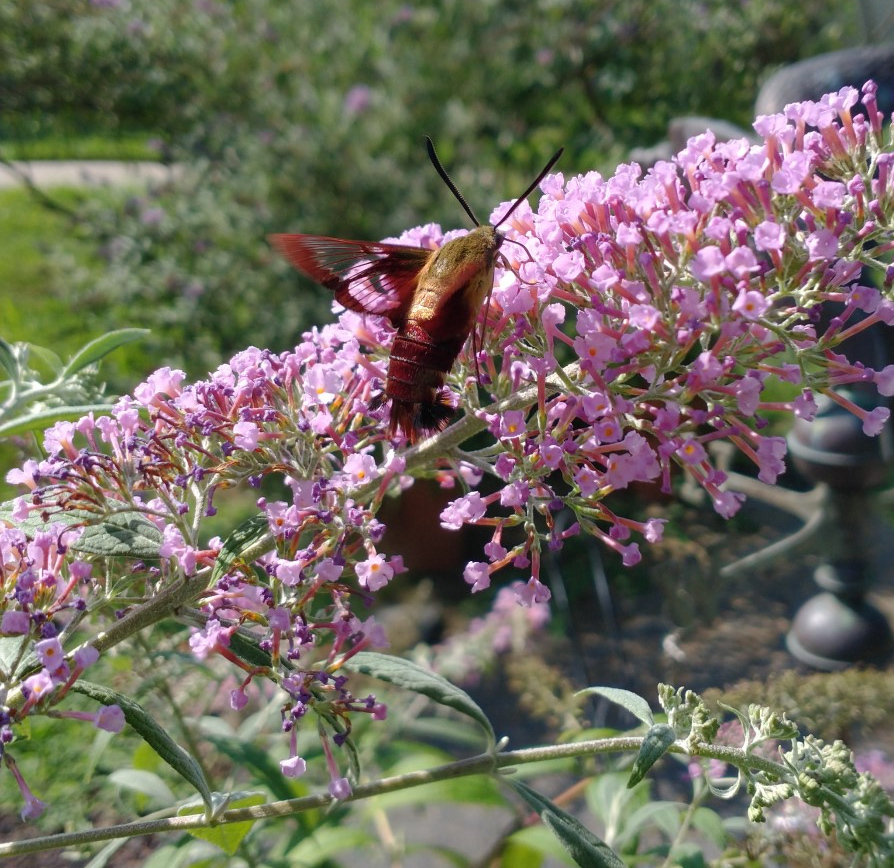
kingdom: Animalia
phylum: Arthropoda
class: Insecta
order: Lepidoptera
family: Sphingidae
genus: Hemaris
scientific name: Hemaris thysbe
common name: Common clear-wing
